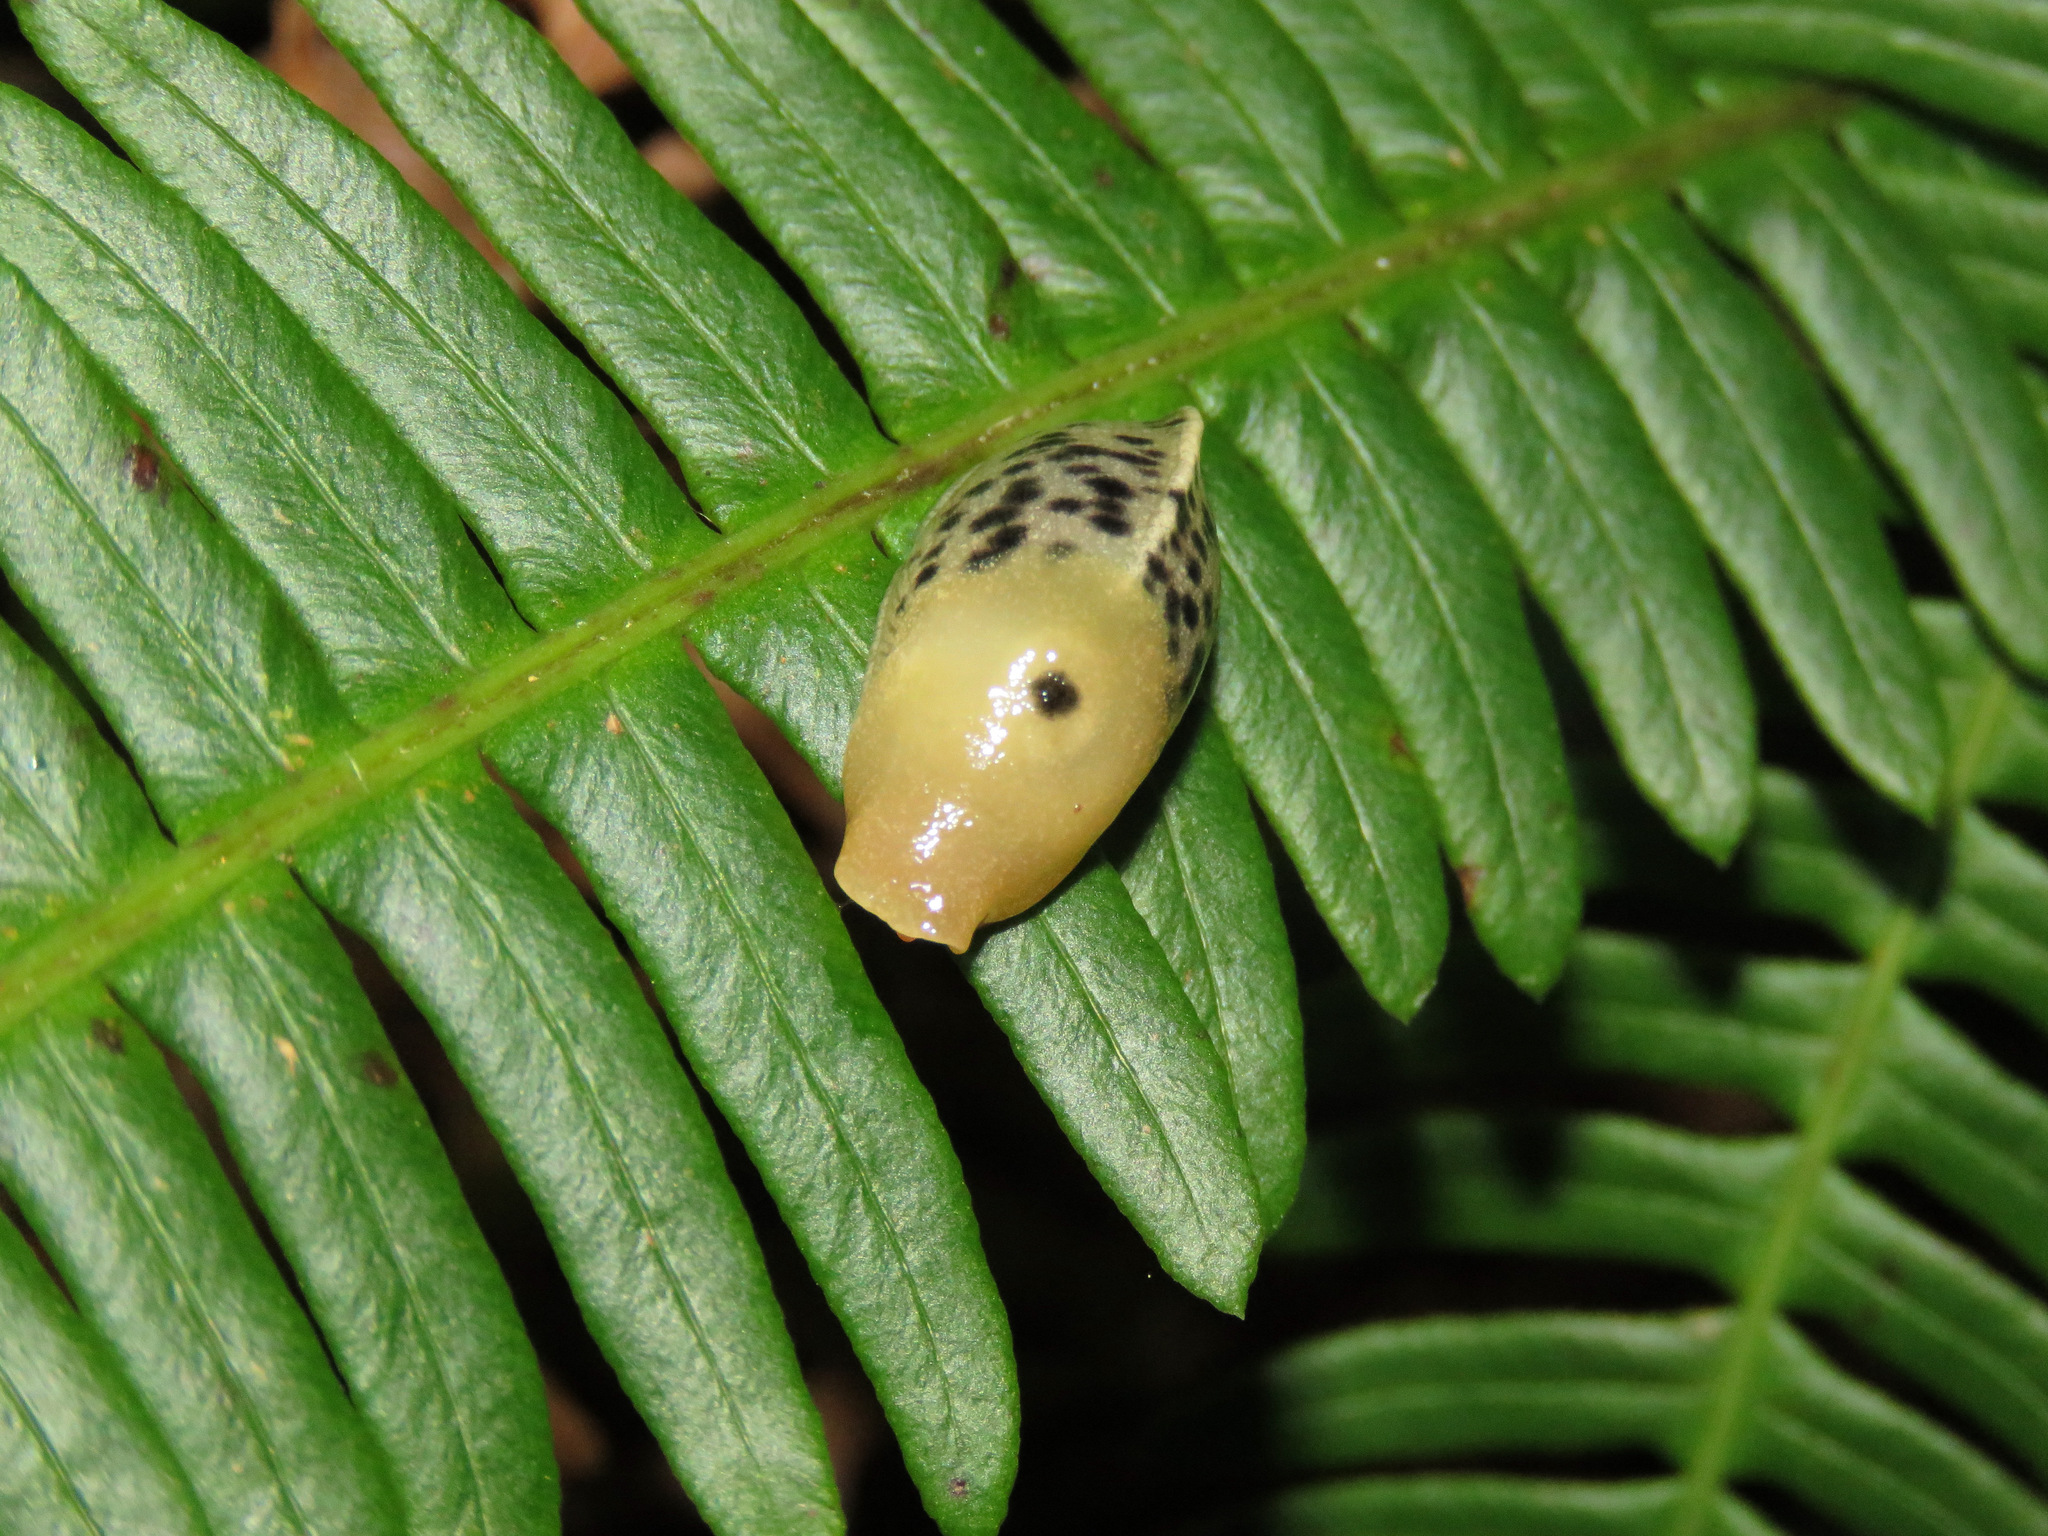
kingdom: Animalia
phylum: Mollusca
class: Gastropoda
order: Stylommatophora
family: Ariolimacidae
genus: Ariolimax
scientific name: Ariolimax columbianus
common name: Pacific banana slug
